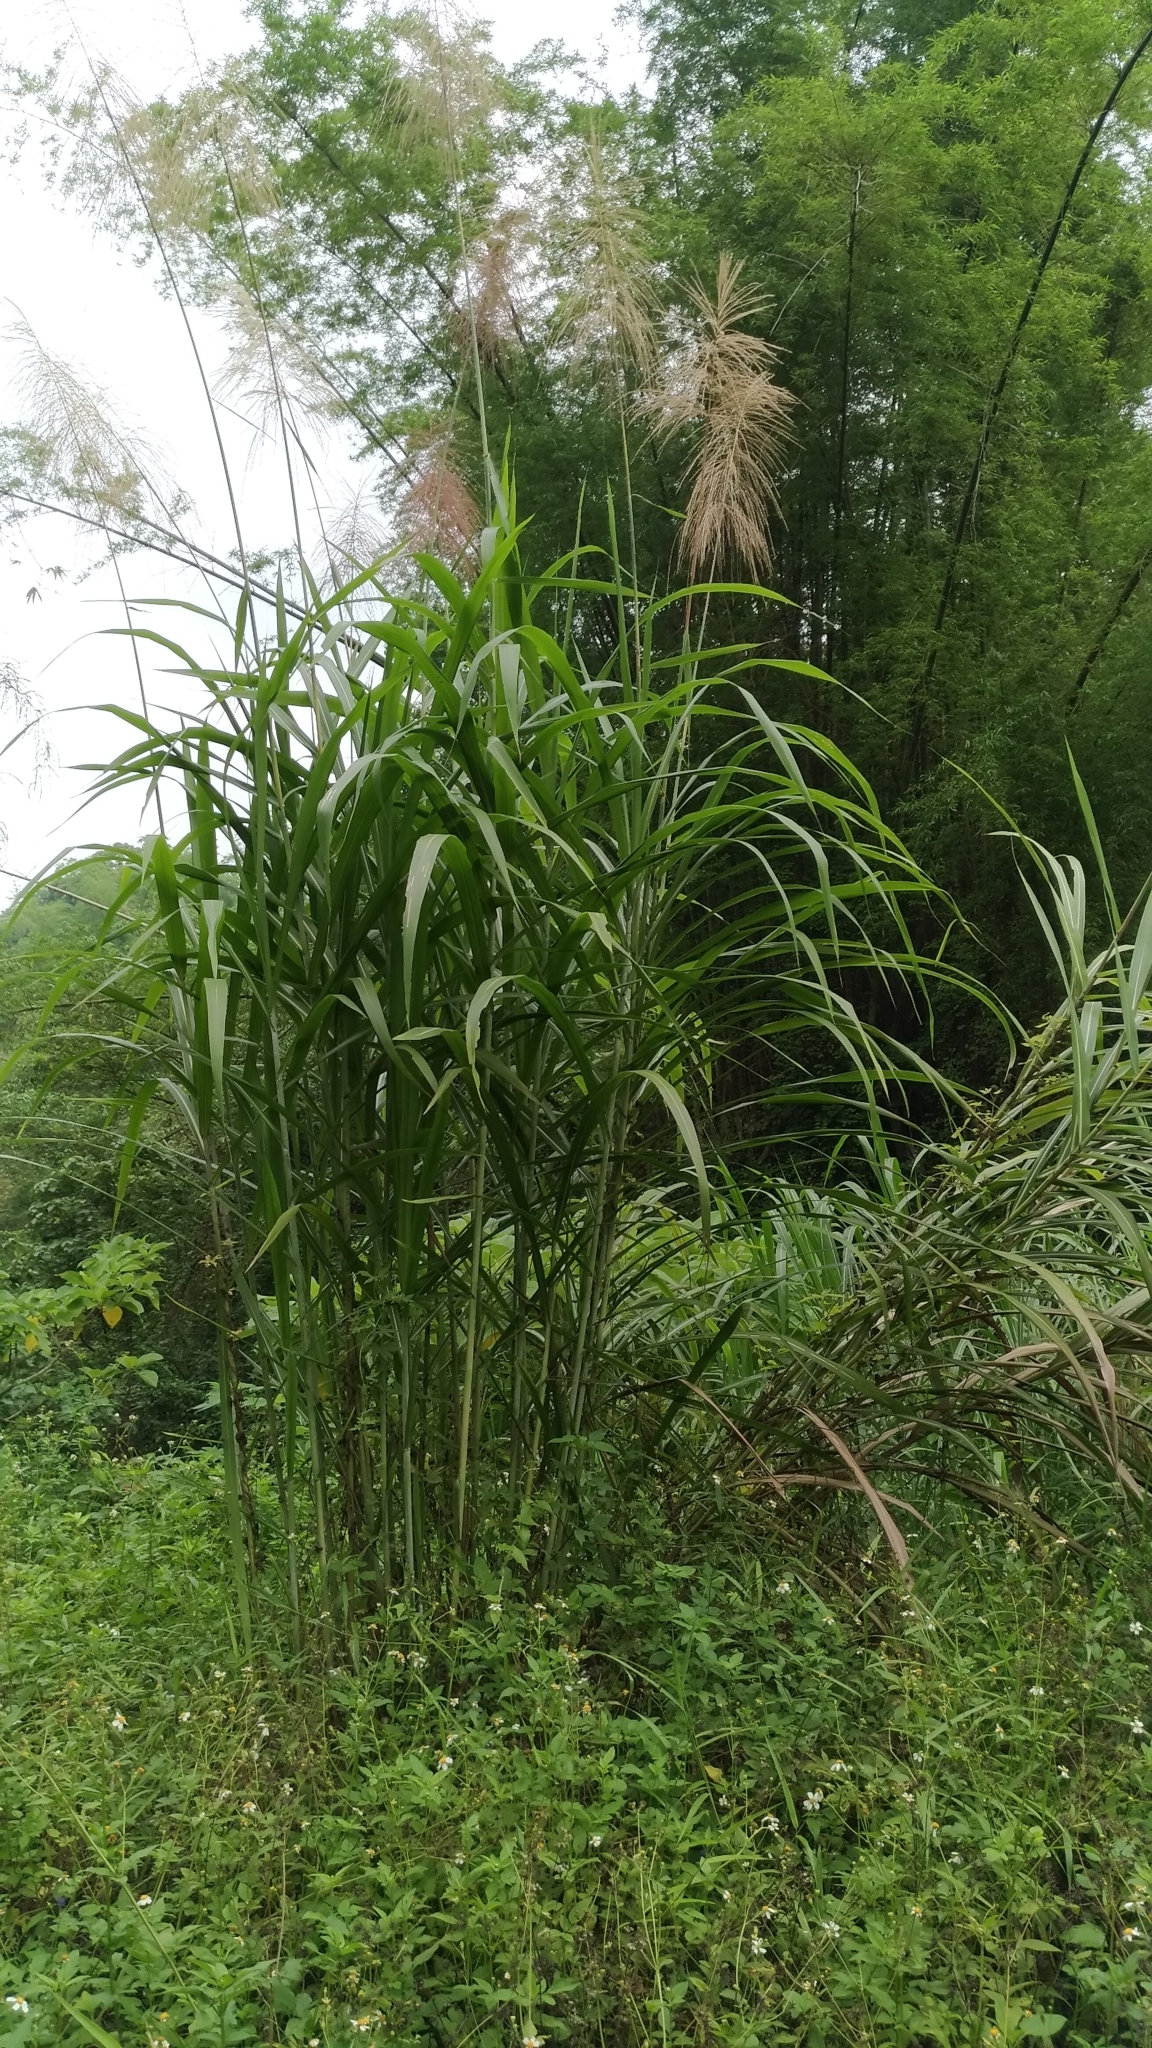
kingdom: Plantae
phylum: Tracheophyta
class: Liliopsida
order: Poales
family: Poaceae
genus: Miscanthus
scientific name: Miscanthus floridulus
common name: Pacific island silvergrass
